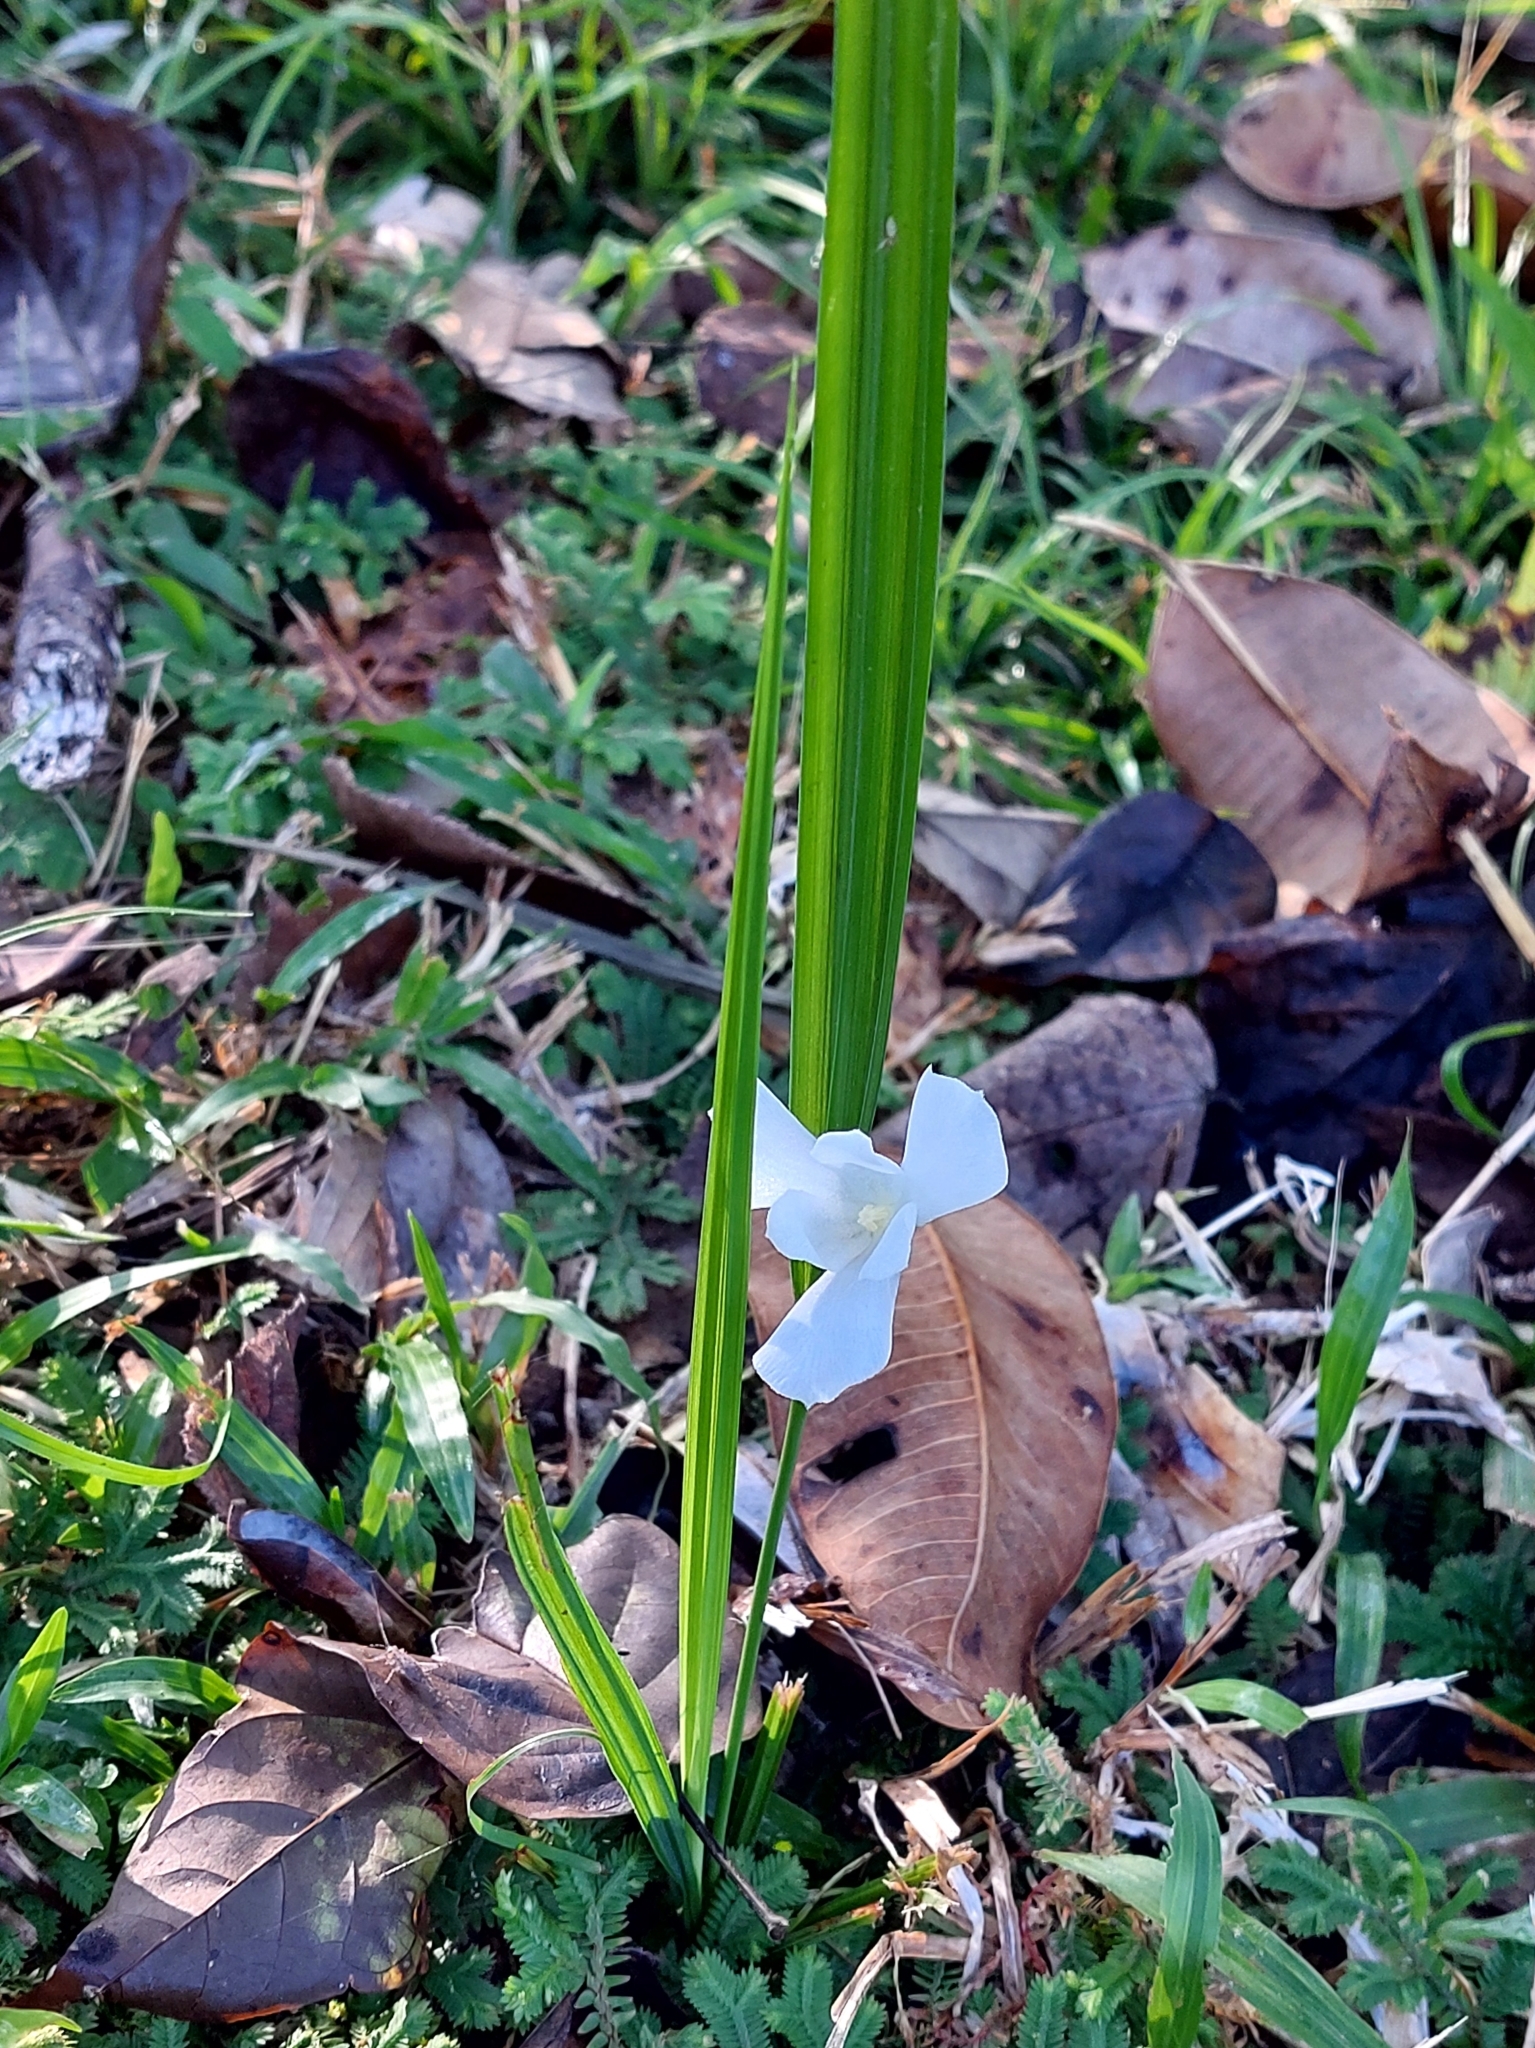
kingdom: Plantae
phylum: Tracheophyta
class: Liliopsida
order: Asparagales
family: Iridaceae
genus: Cipura
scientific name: Cipura campanulata
